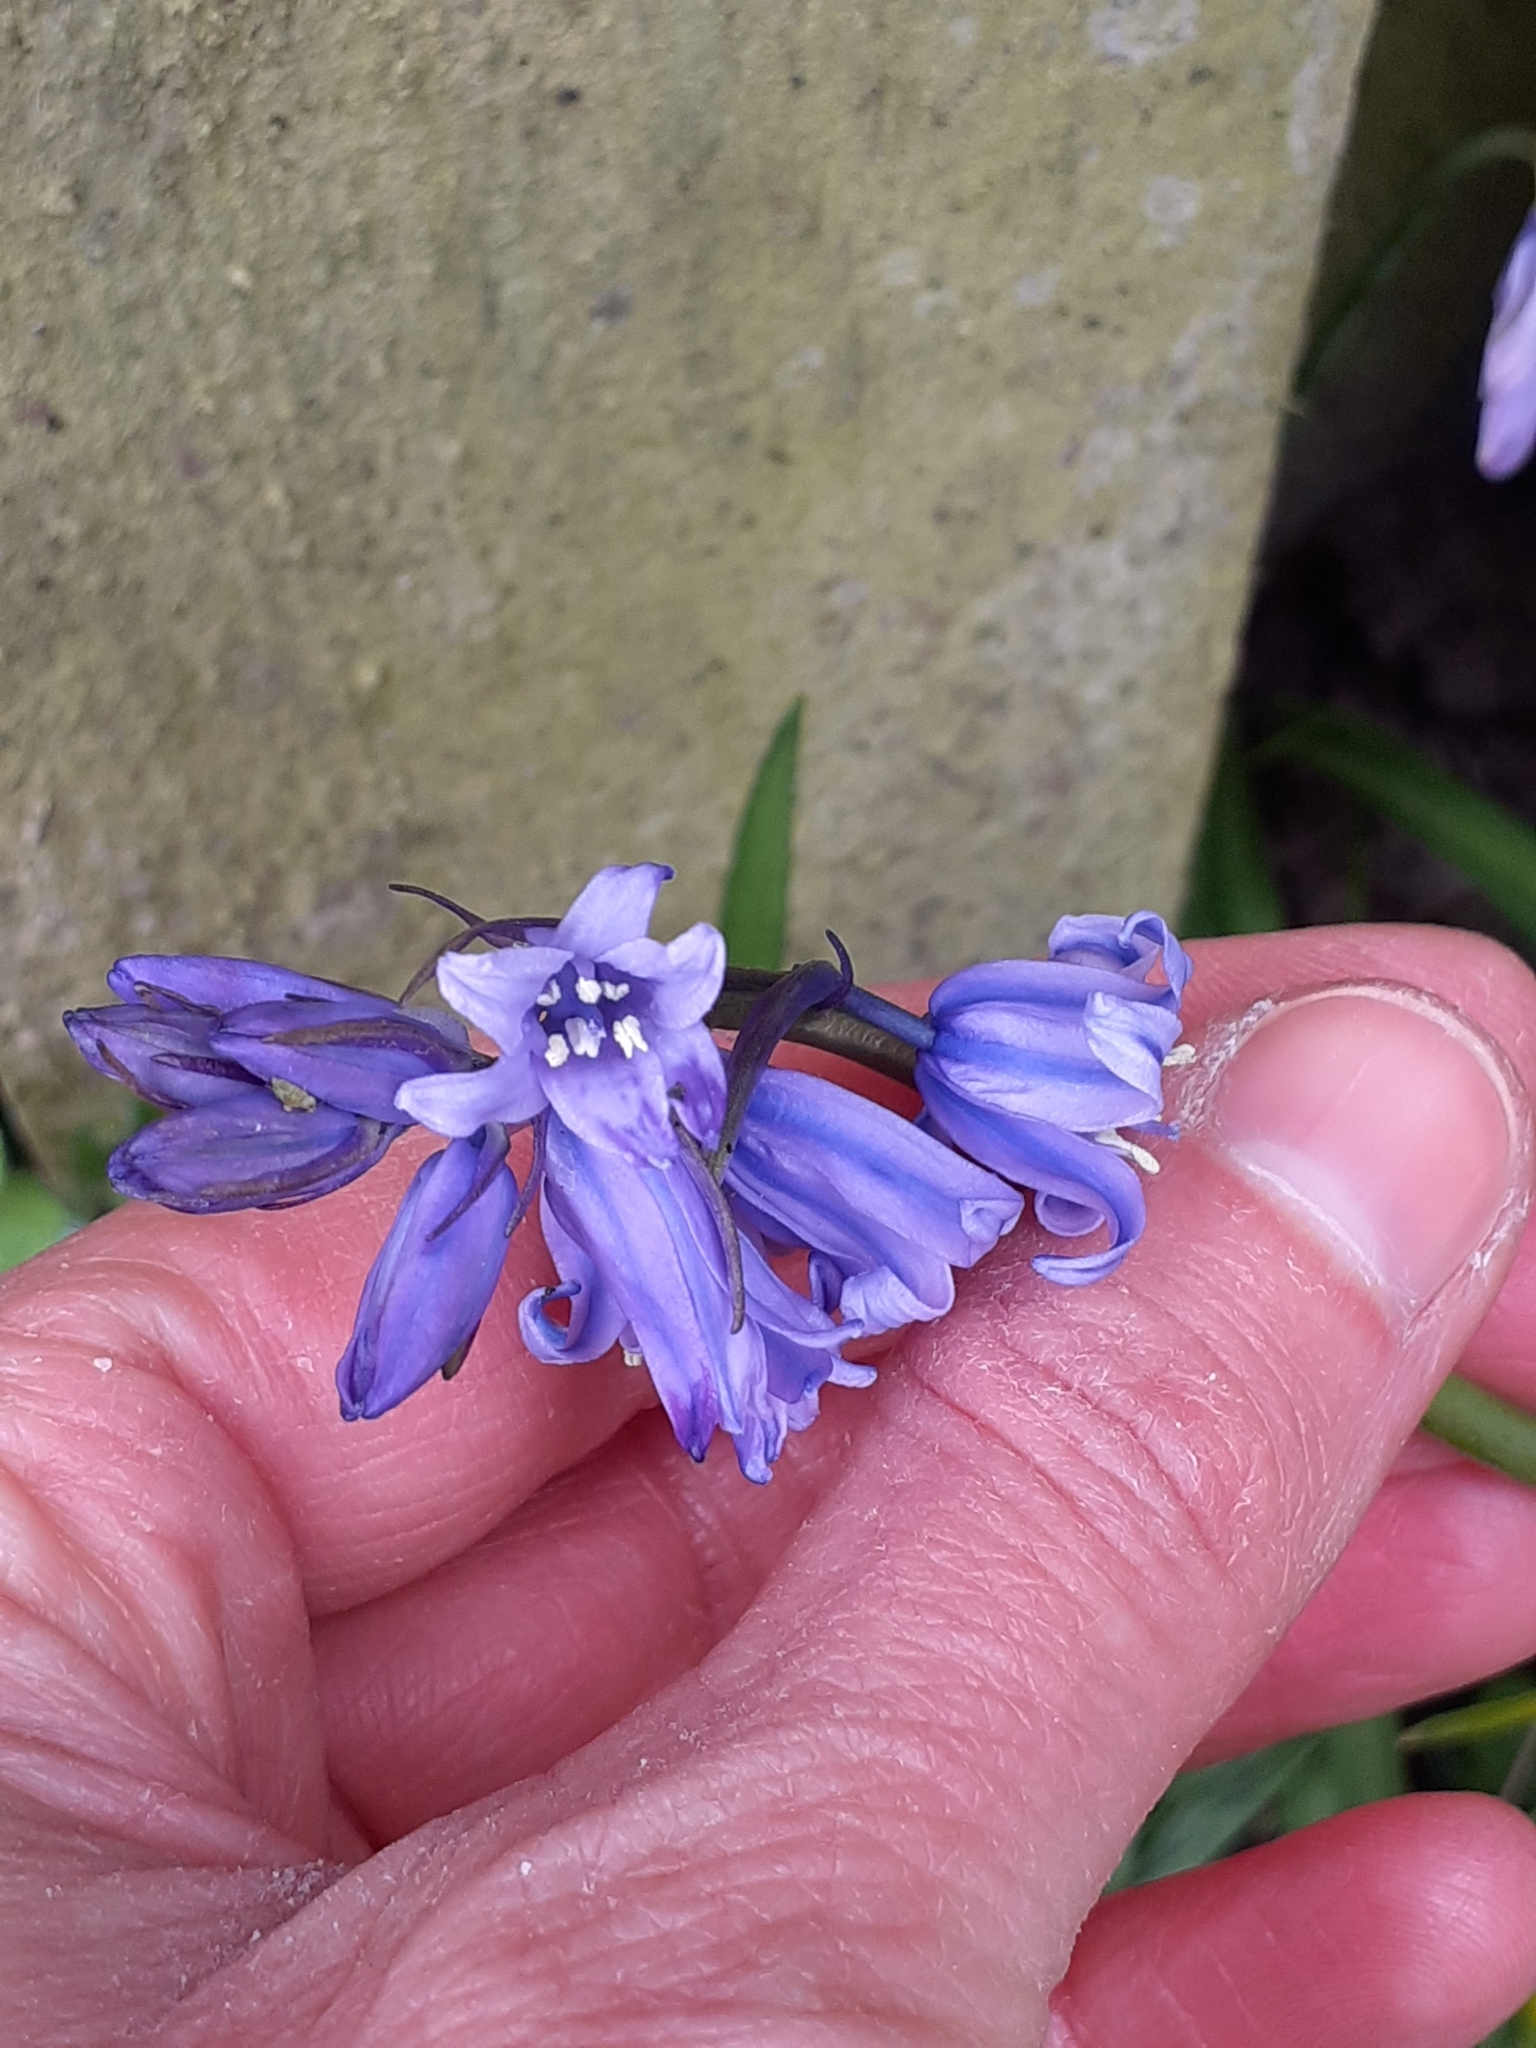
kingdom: Plantae
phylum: Tracheophyta
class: Liliopsida
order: Asparagales
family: Asparagaceae
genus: Hyacinthoides
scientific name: Hyacinthoides massartiana
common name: Hyacinthoides
